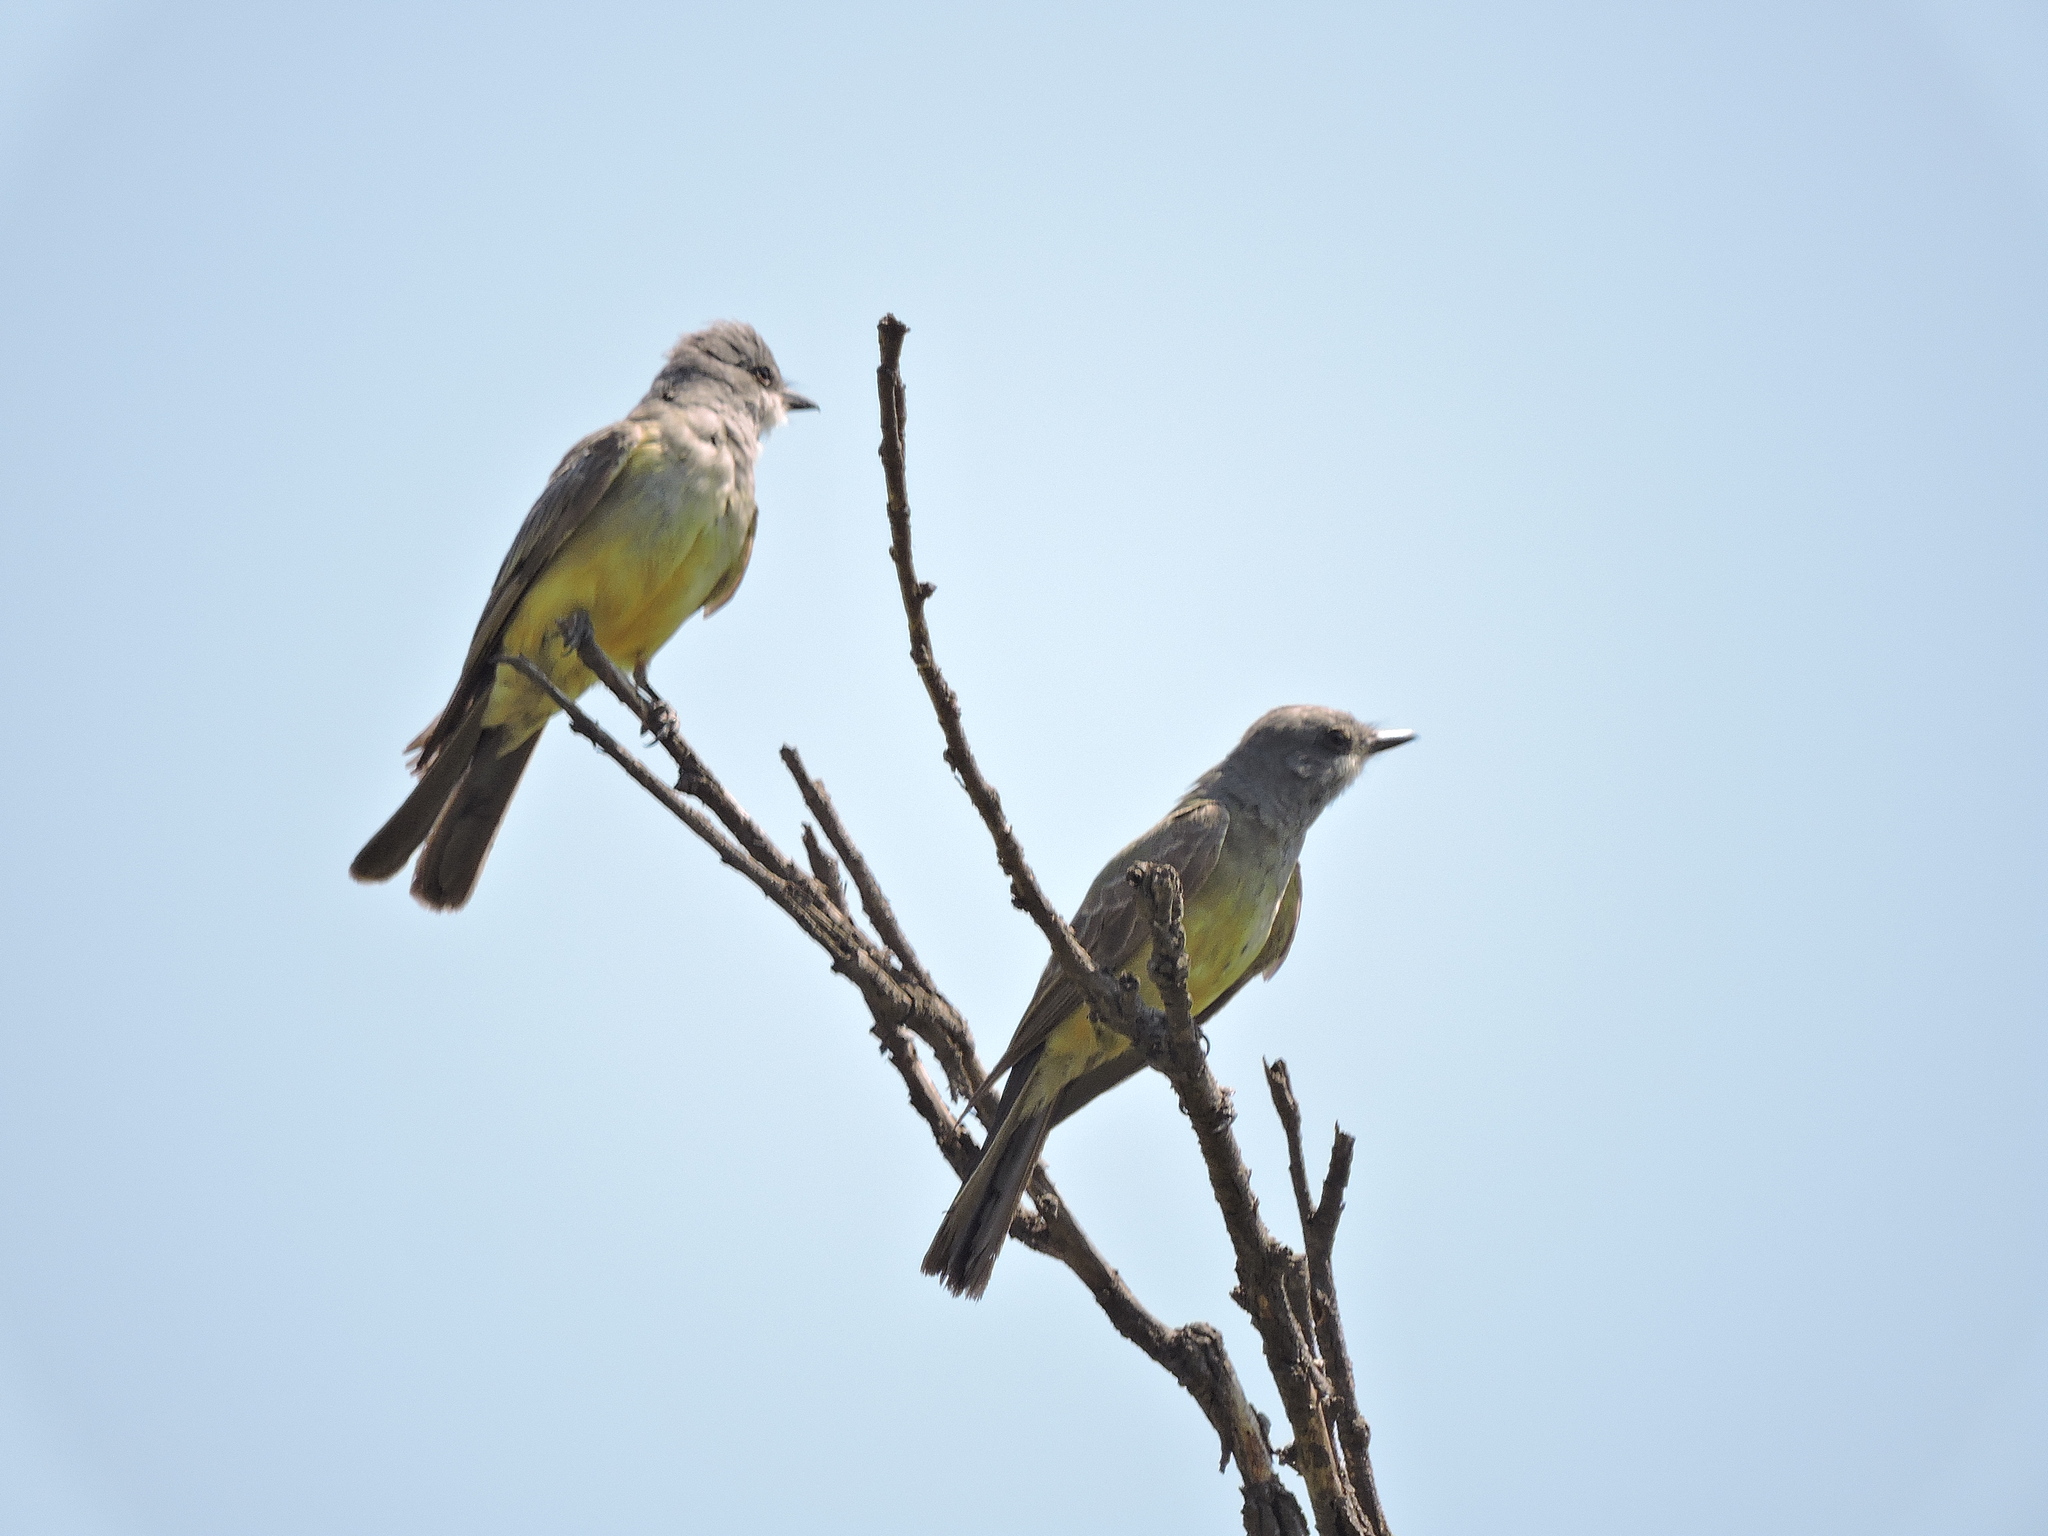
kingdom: Animalia
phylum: Chordata
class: Aves
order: Passeriformes
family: Tyrannidae
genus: Tyrannus
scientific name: Tyrannus vociferans
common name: Cassin's kingbird
